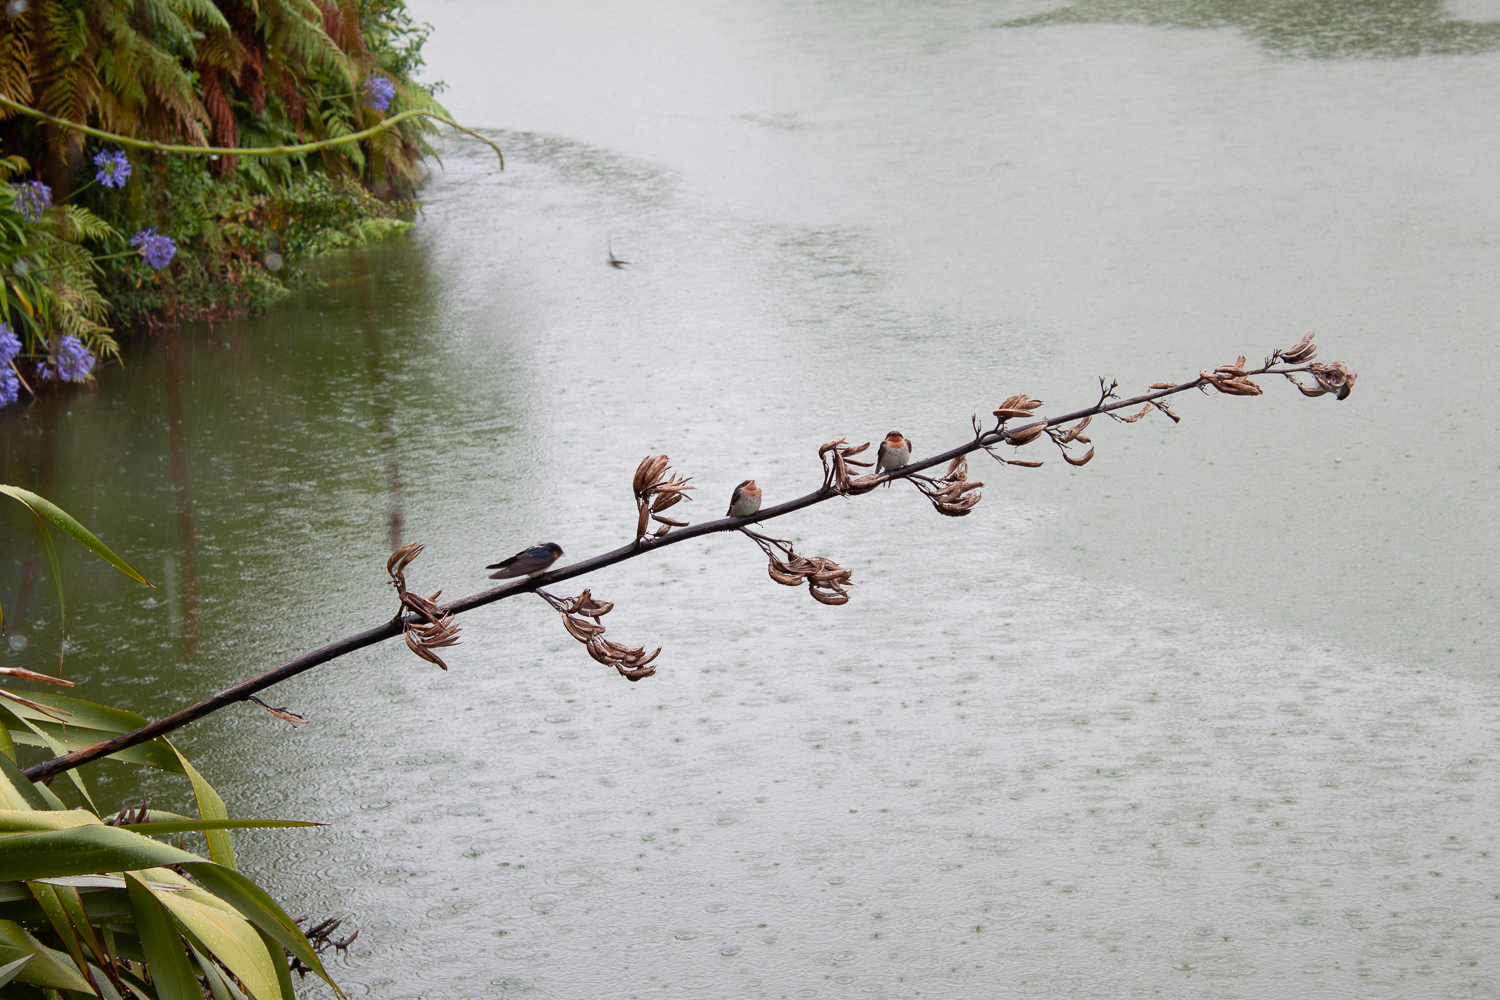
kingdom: Animalia
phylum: Chordata
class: Aves
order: Passeriformes
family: Hirundinidae
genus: Hirundo
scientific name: Hirundo neoxena
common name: Welcome swallow
